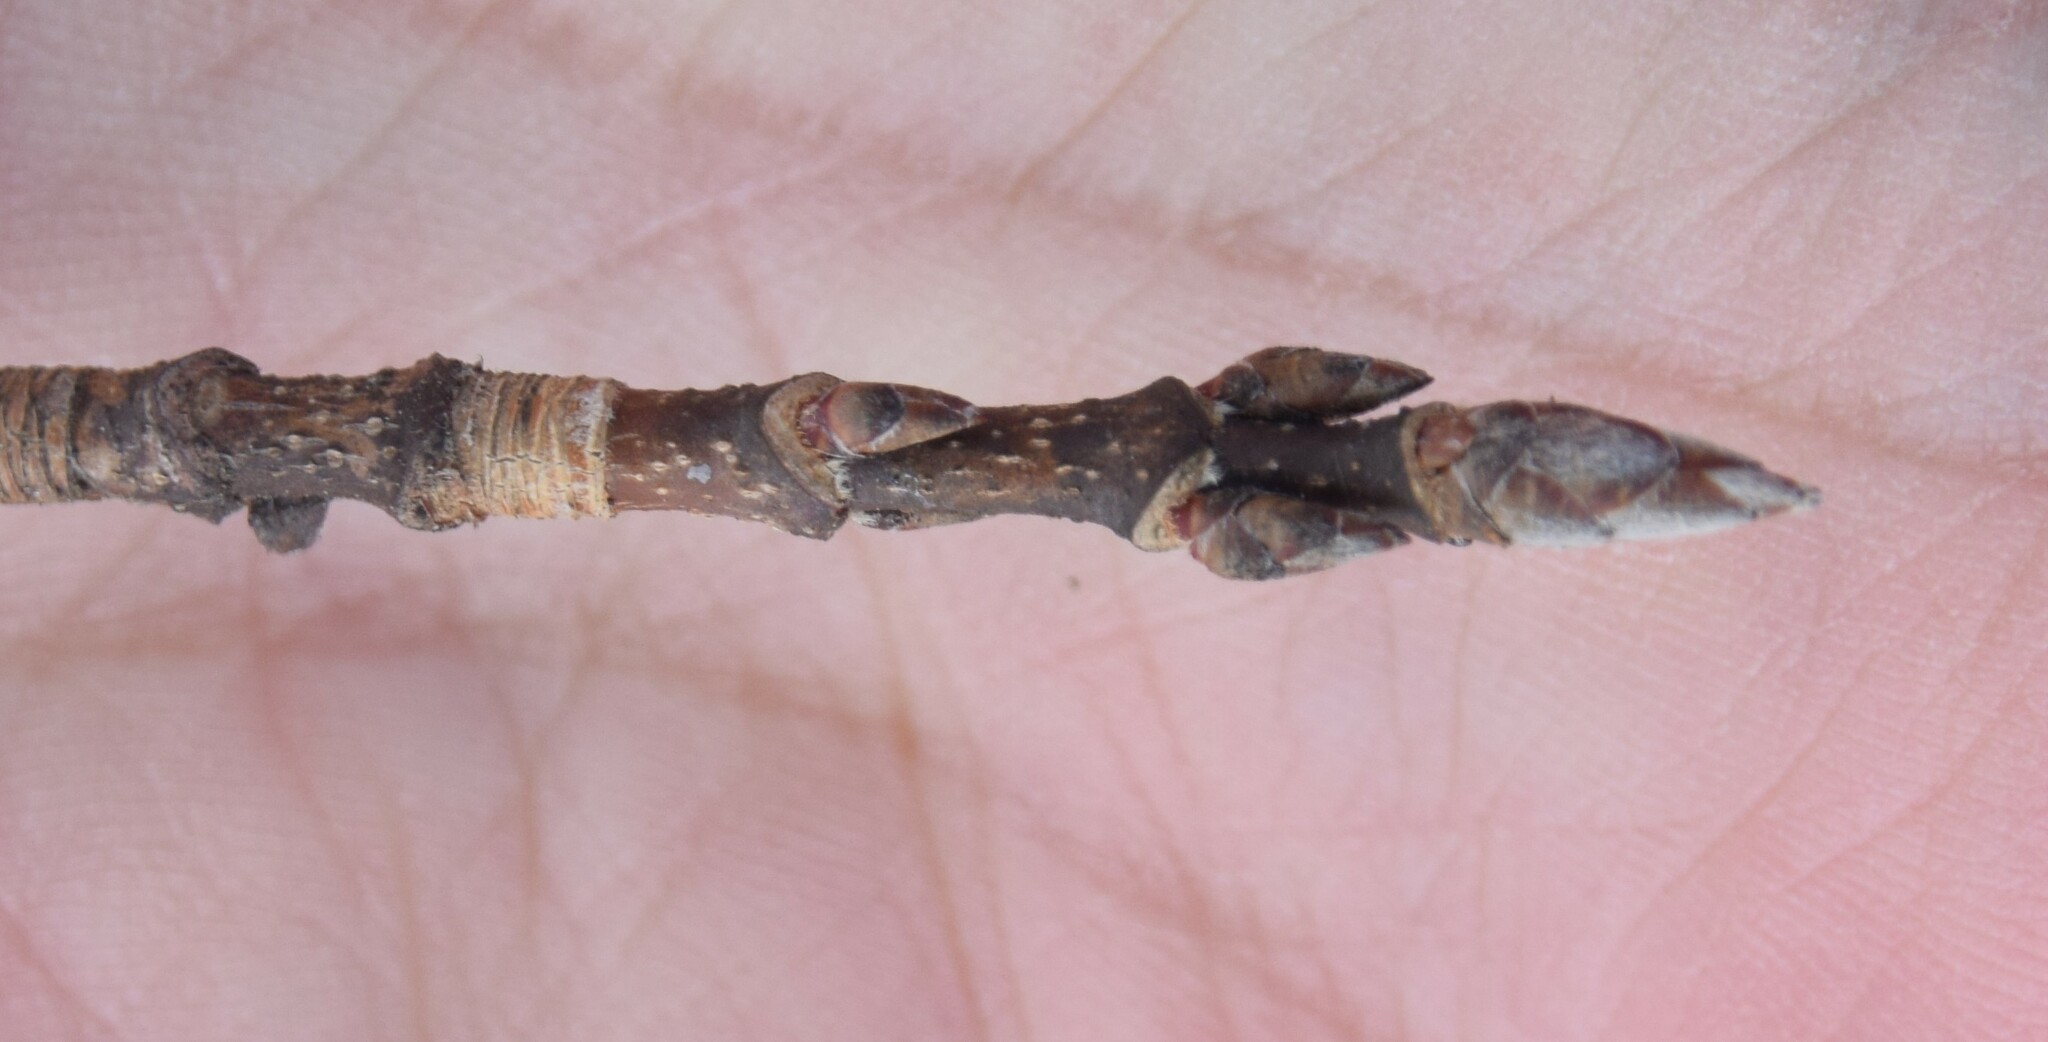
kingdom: Plantae
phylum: Tracheophyta
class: Magnoliopsida
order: Sapindales
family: Sapindaceae
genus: Acer
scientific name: Acer saccharum
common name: Sugar maple
